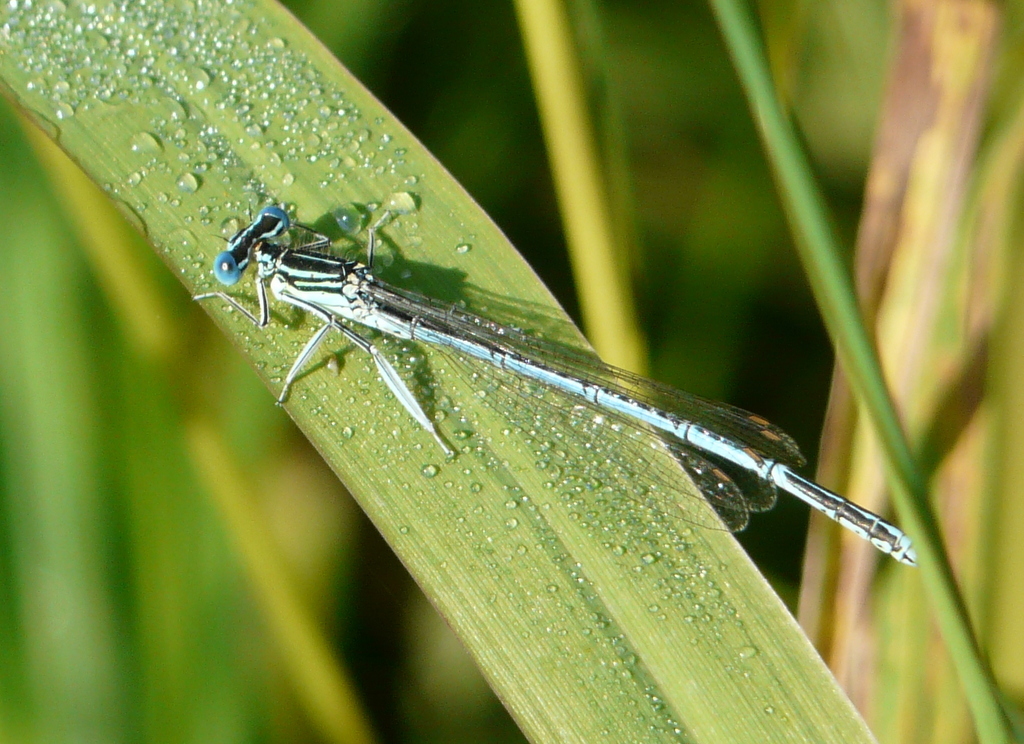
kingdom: Animalia
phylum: Arthropoda
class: Insecta
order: Odonata
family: Platycnemididae
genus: Platycnemis
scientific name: Platycnemis pennipes
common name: White-legged damselfly
